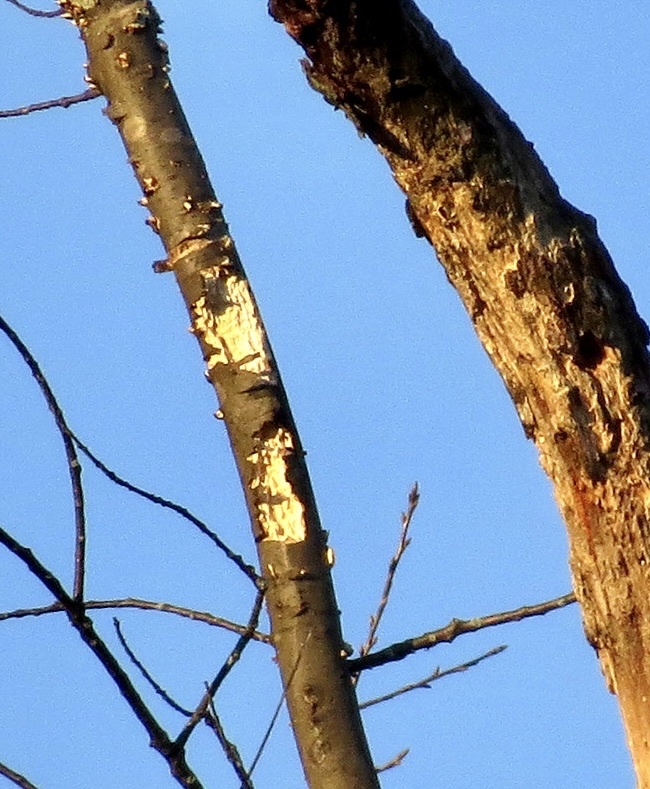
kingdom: Animalia
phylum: Chordata
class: Aves
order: Piciformes
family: Picidae
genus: Dryocopus
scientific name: Dryocopus pileatus
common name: Pileated woodpecker
